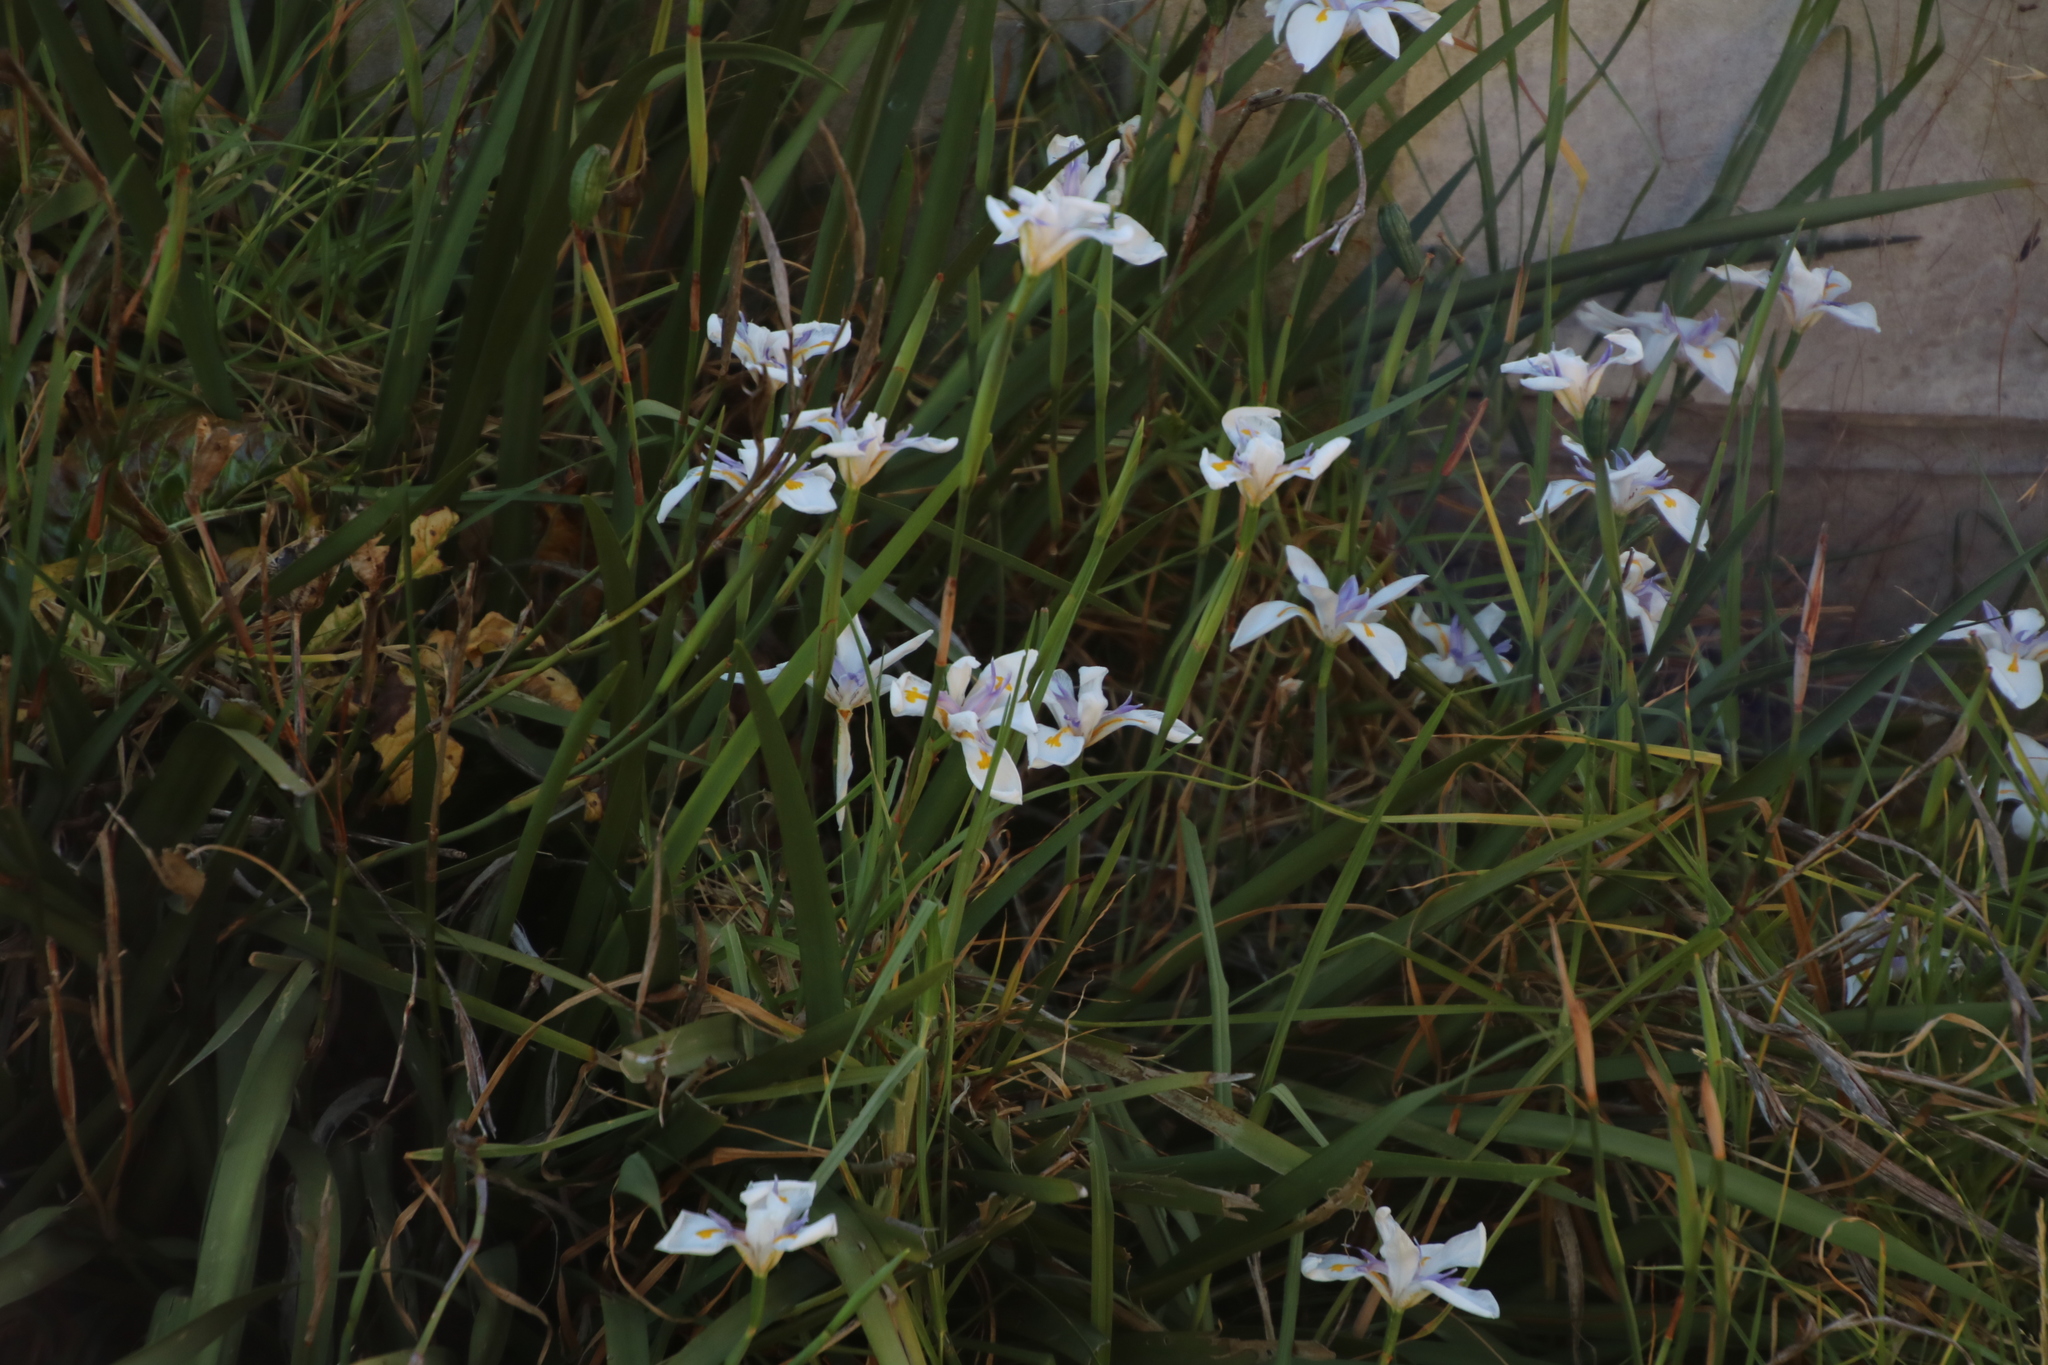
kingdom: Plantae
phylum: Tracheophyta
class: Liliopsida
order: Asparagales
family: Iridaceae
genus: Dietes
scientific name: Dietes grandiflora
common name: Wild iris
